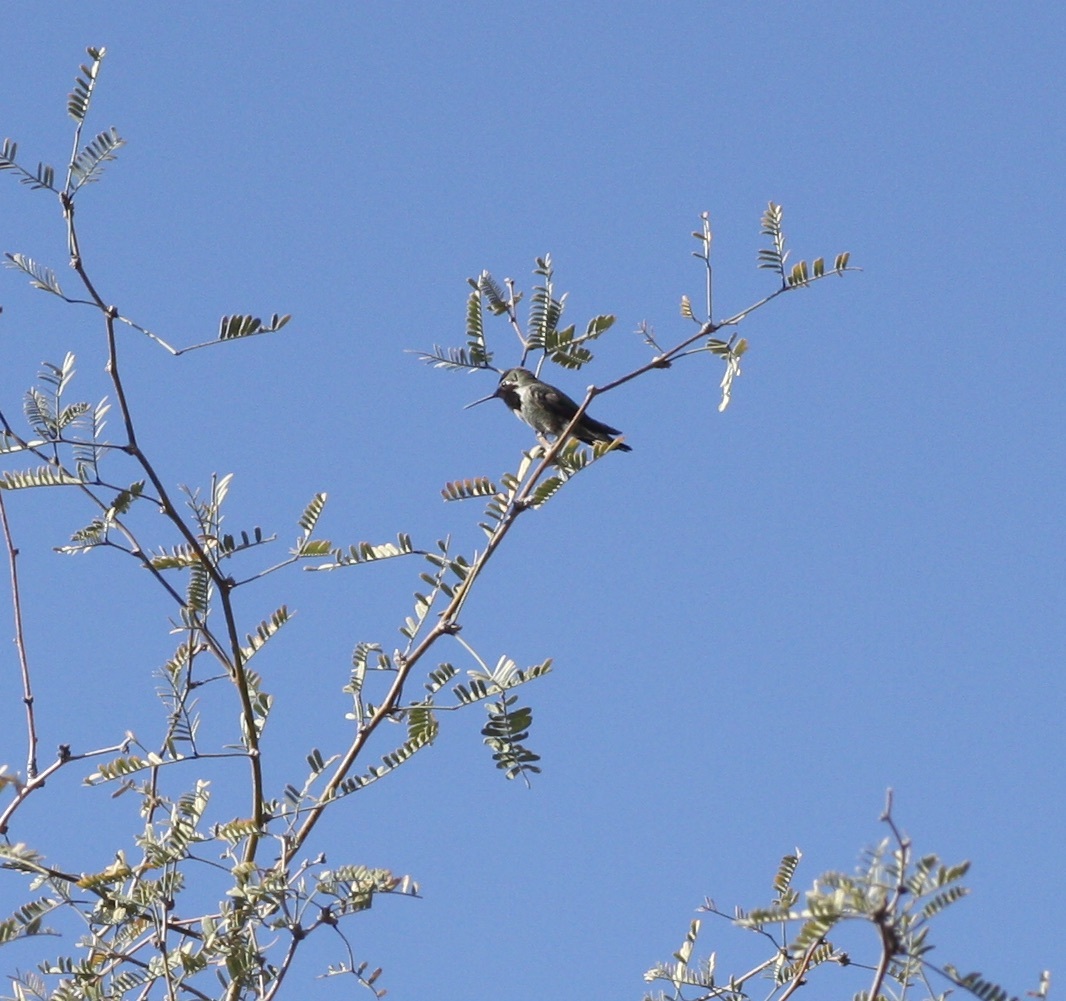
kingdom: Animalia
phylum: Chordata
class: Aves
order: Apodiformes
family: Trochilidae
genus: Calypte
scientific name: Calypte anna
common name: Anna's hummingbird
